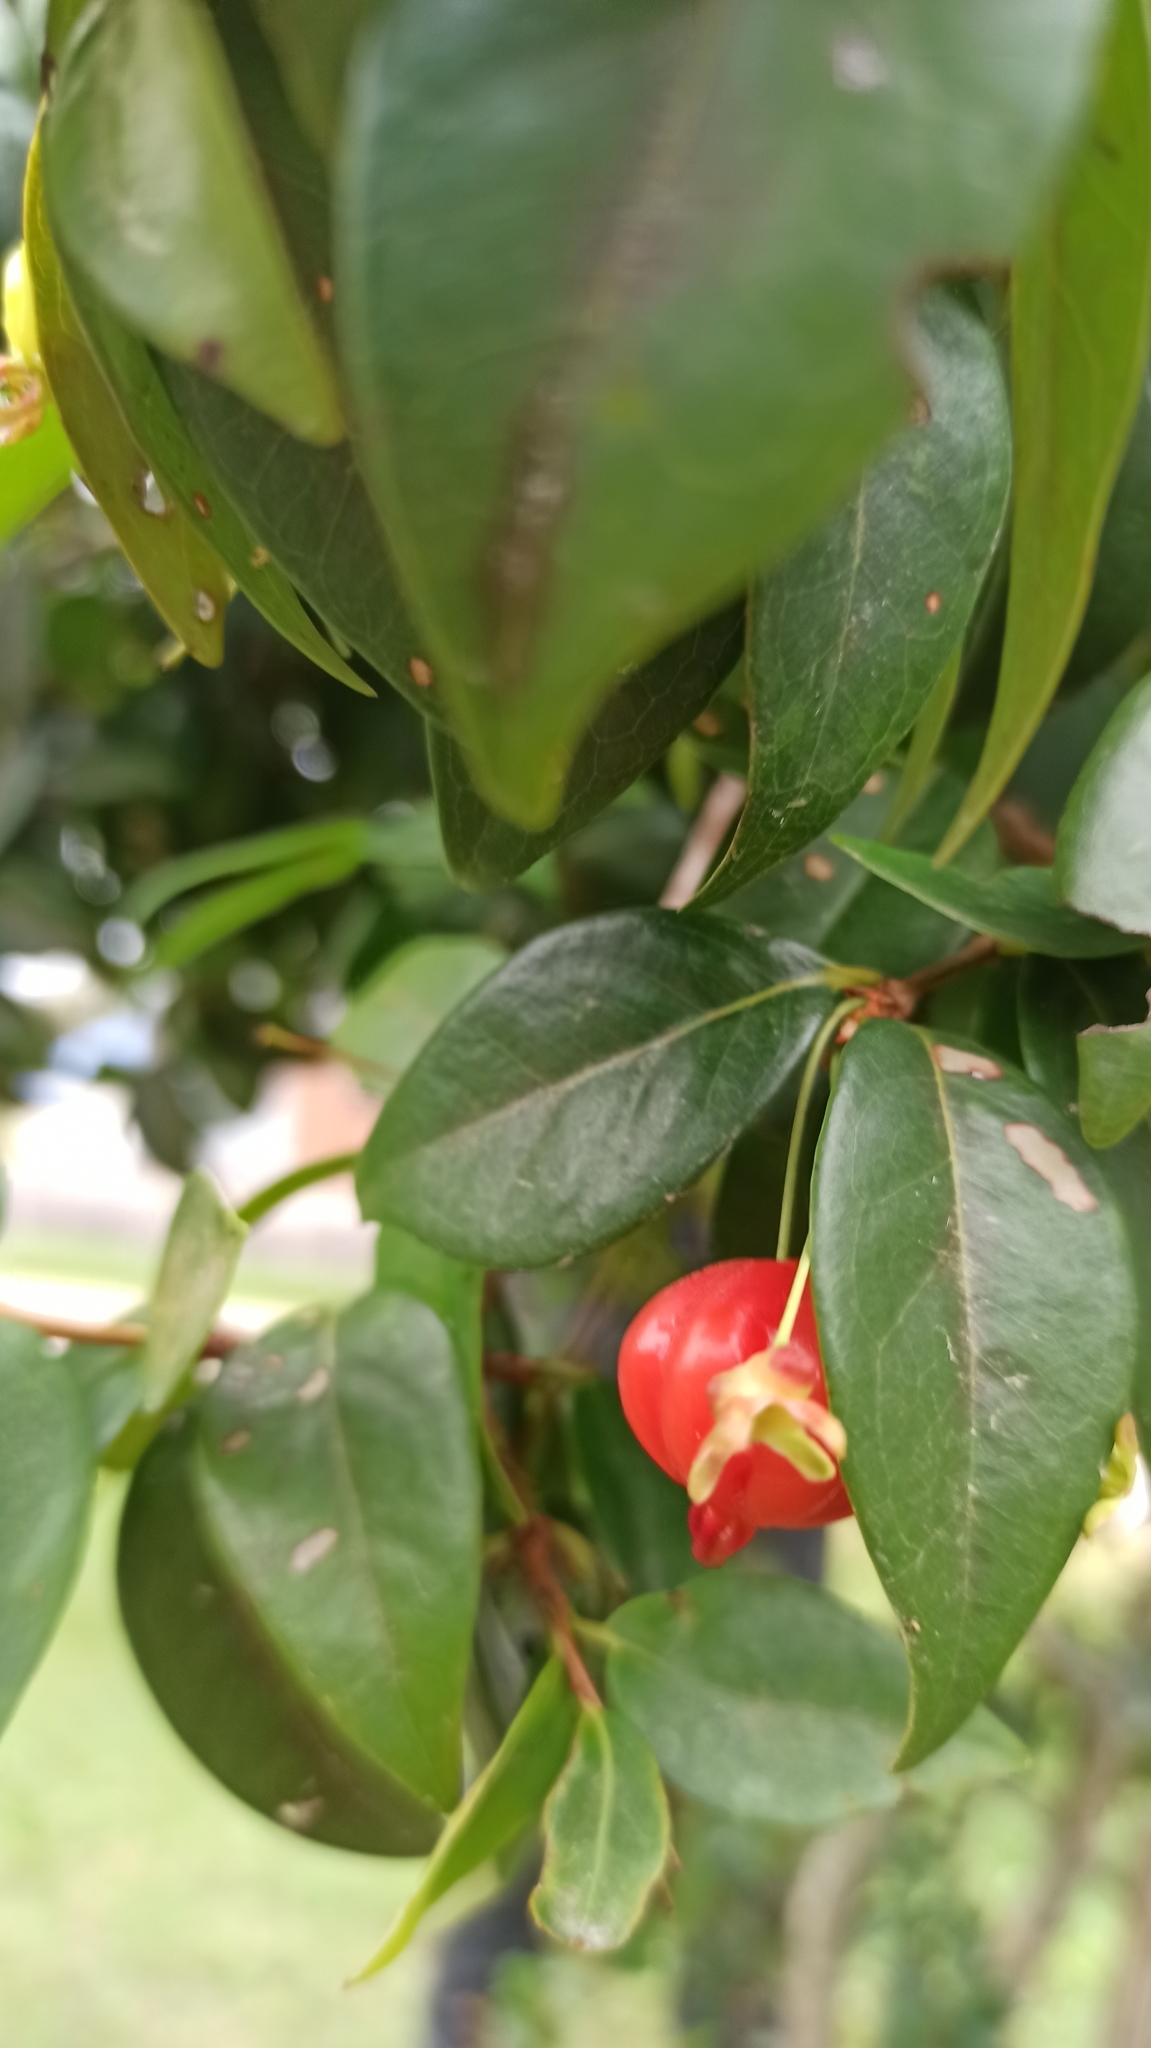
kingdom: Plantae
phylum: Tracheophyta
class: Magnoliopsida
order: Myrtales
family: Myrtaceae
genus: Eugenia
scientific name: Eugenia uniflora
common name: Surinam cherry
